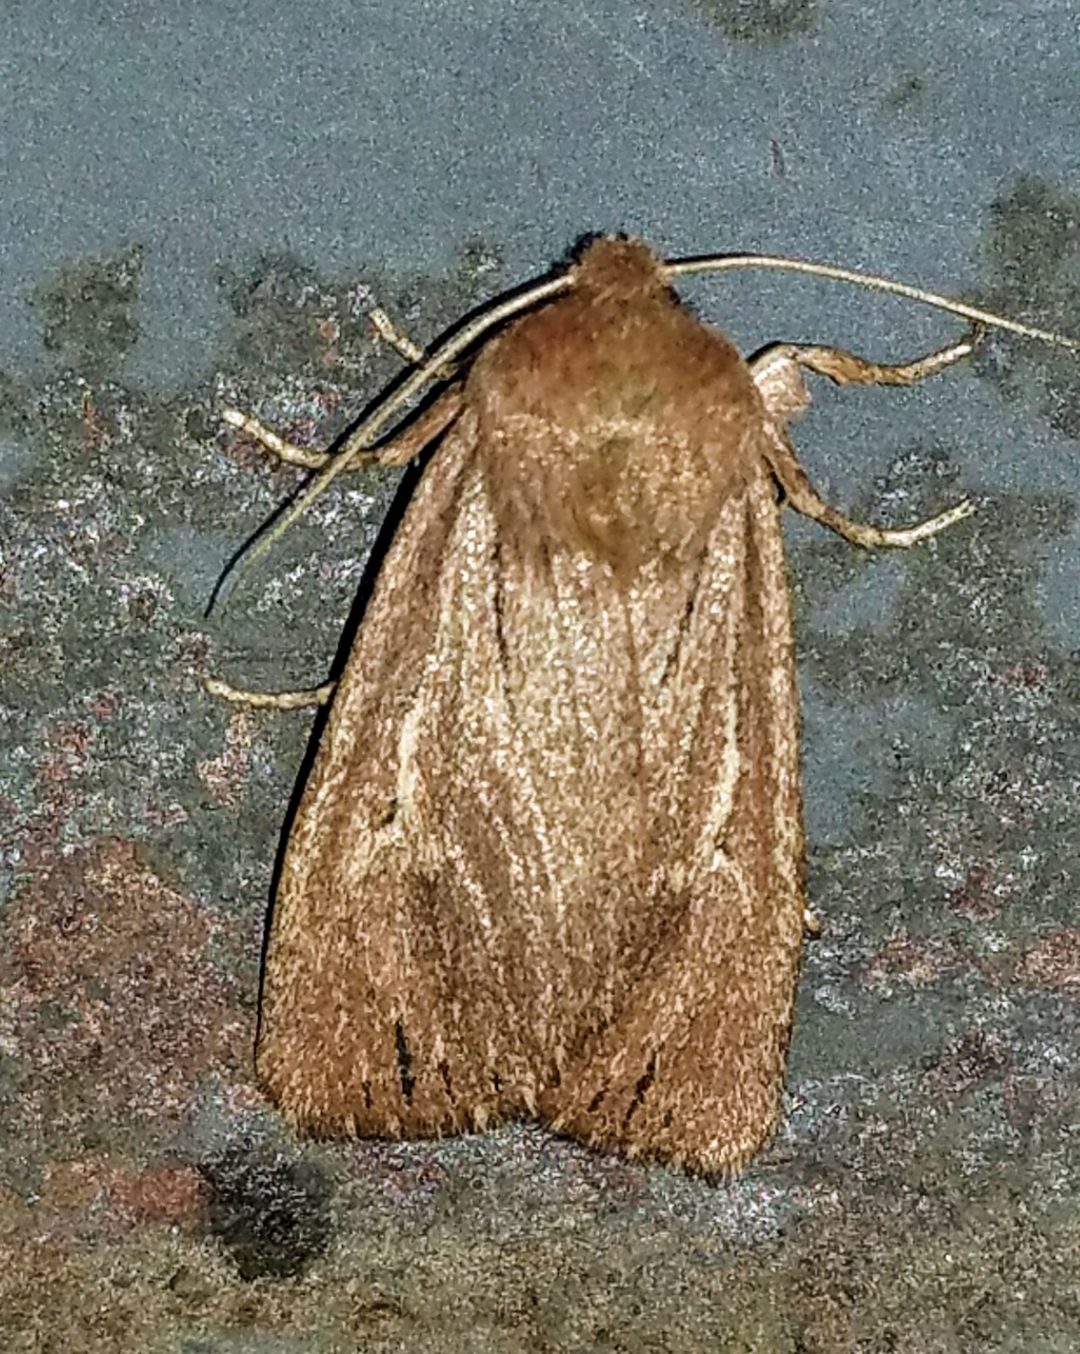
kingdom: Animalia
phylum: Arthropoda
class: Insecta
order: Lepidoptera
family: Noctuidae
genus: Ufeus
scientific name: Ufeus satyricus
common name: Brown satyr moth
